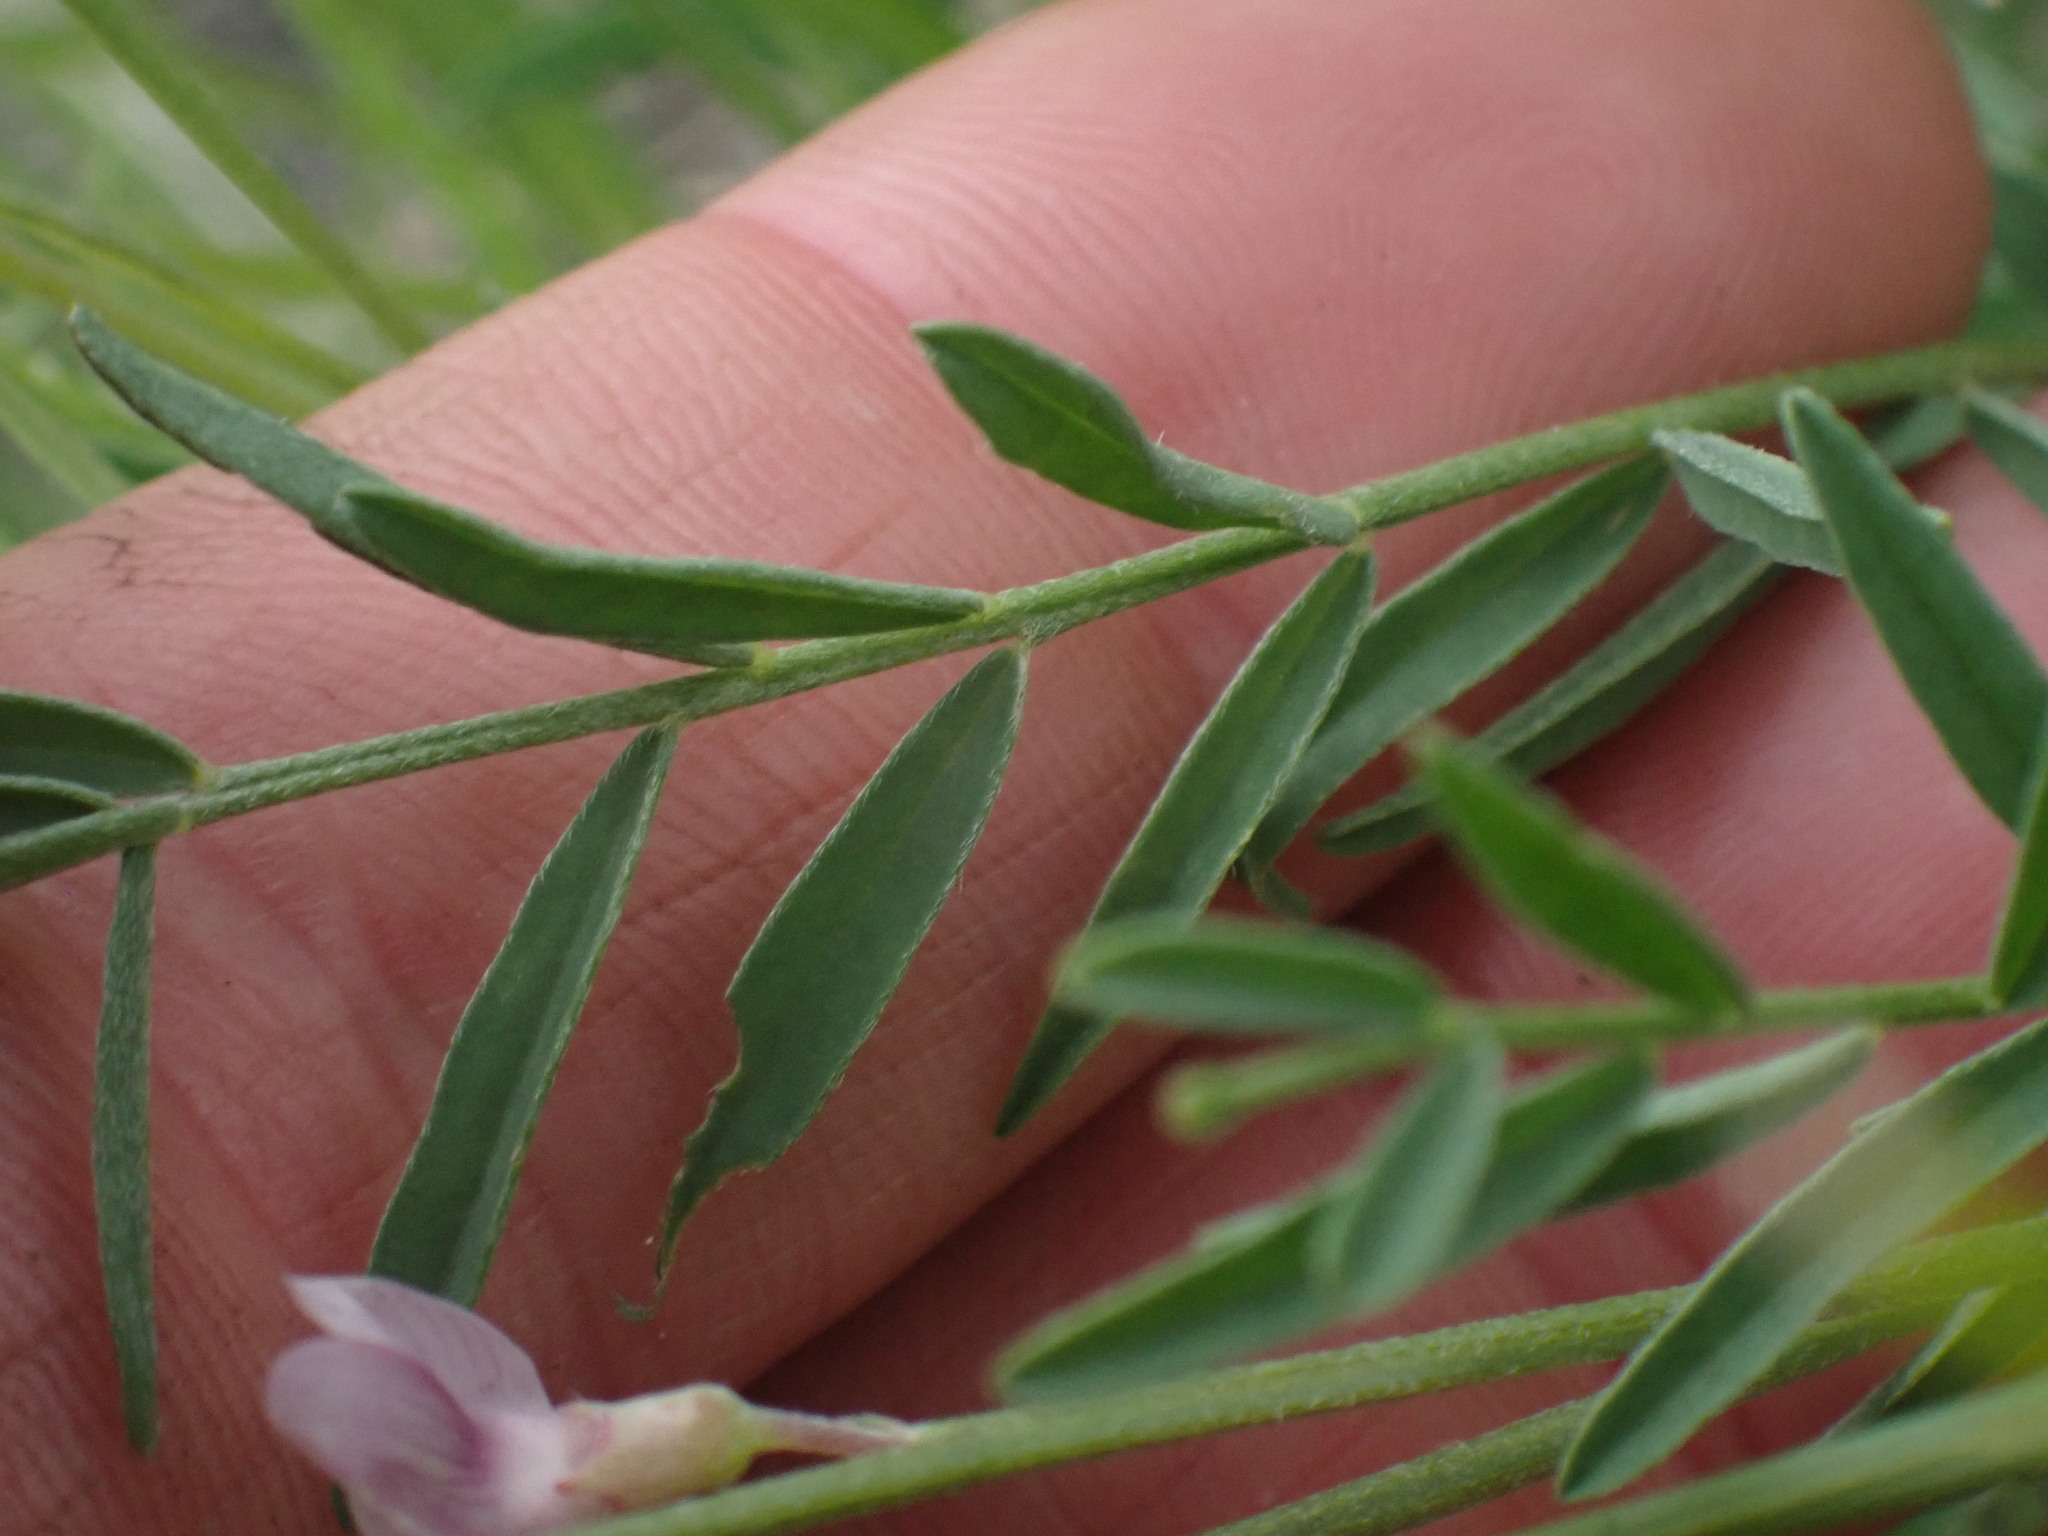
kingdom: Plantae
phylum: Tracheophyta
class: Magnoliopsida
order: Fabales
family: Fabaceae
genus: Astragalus
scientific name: Astragalus miser
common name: Timber milkvetch
